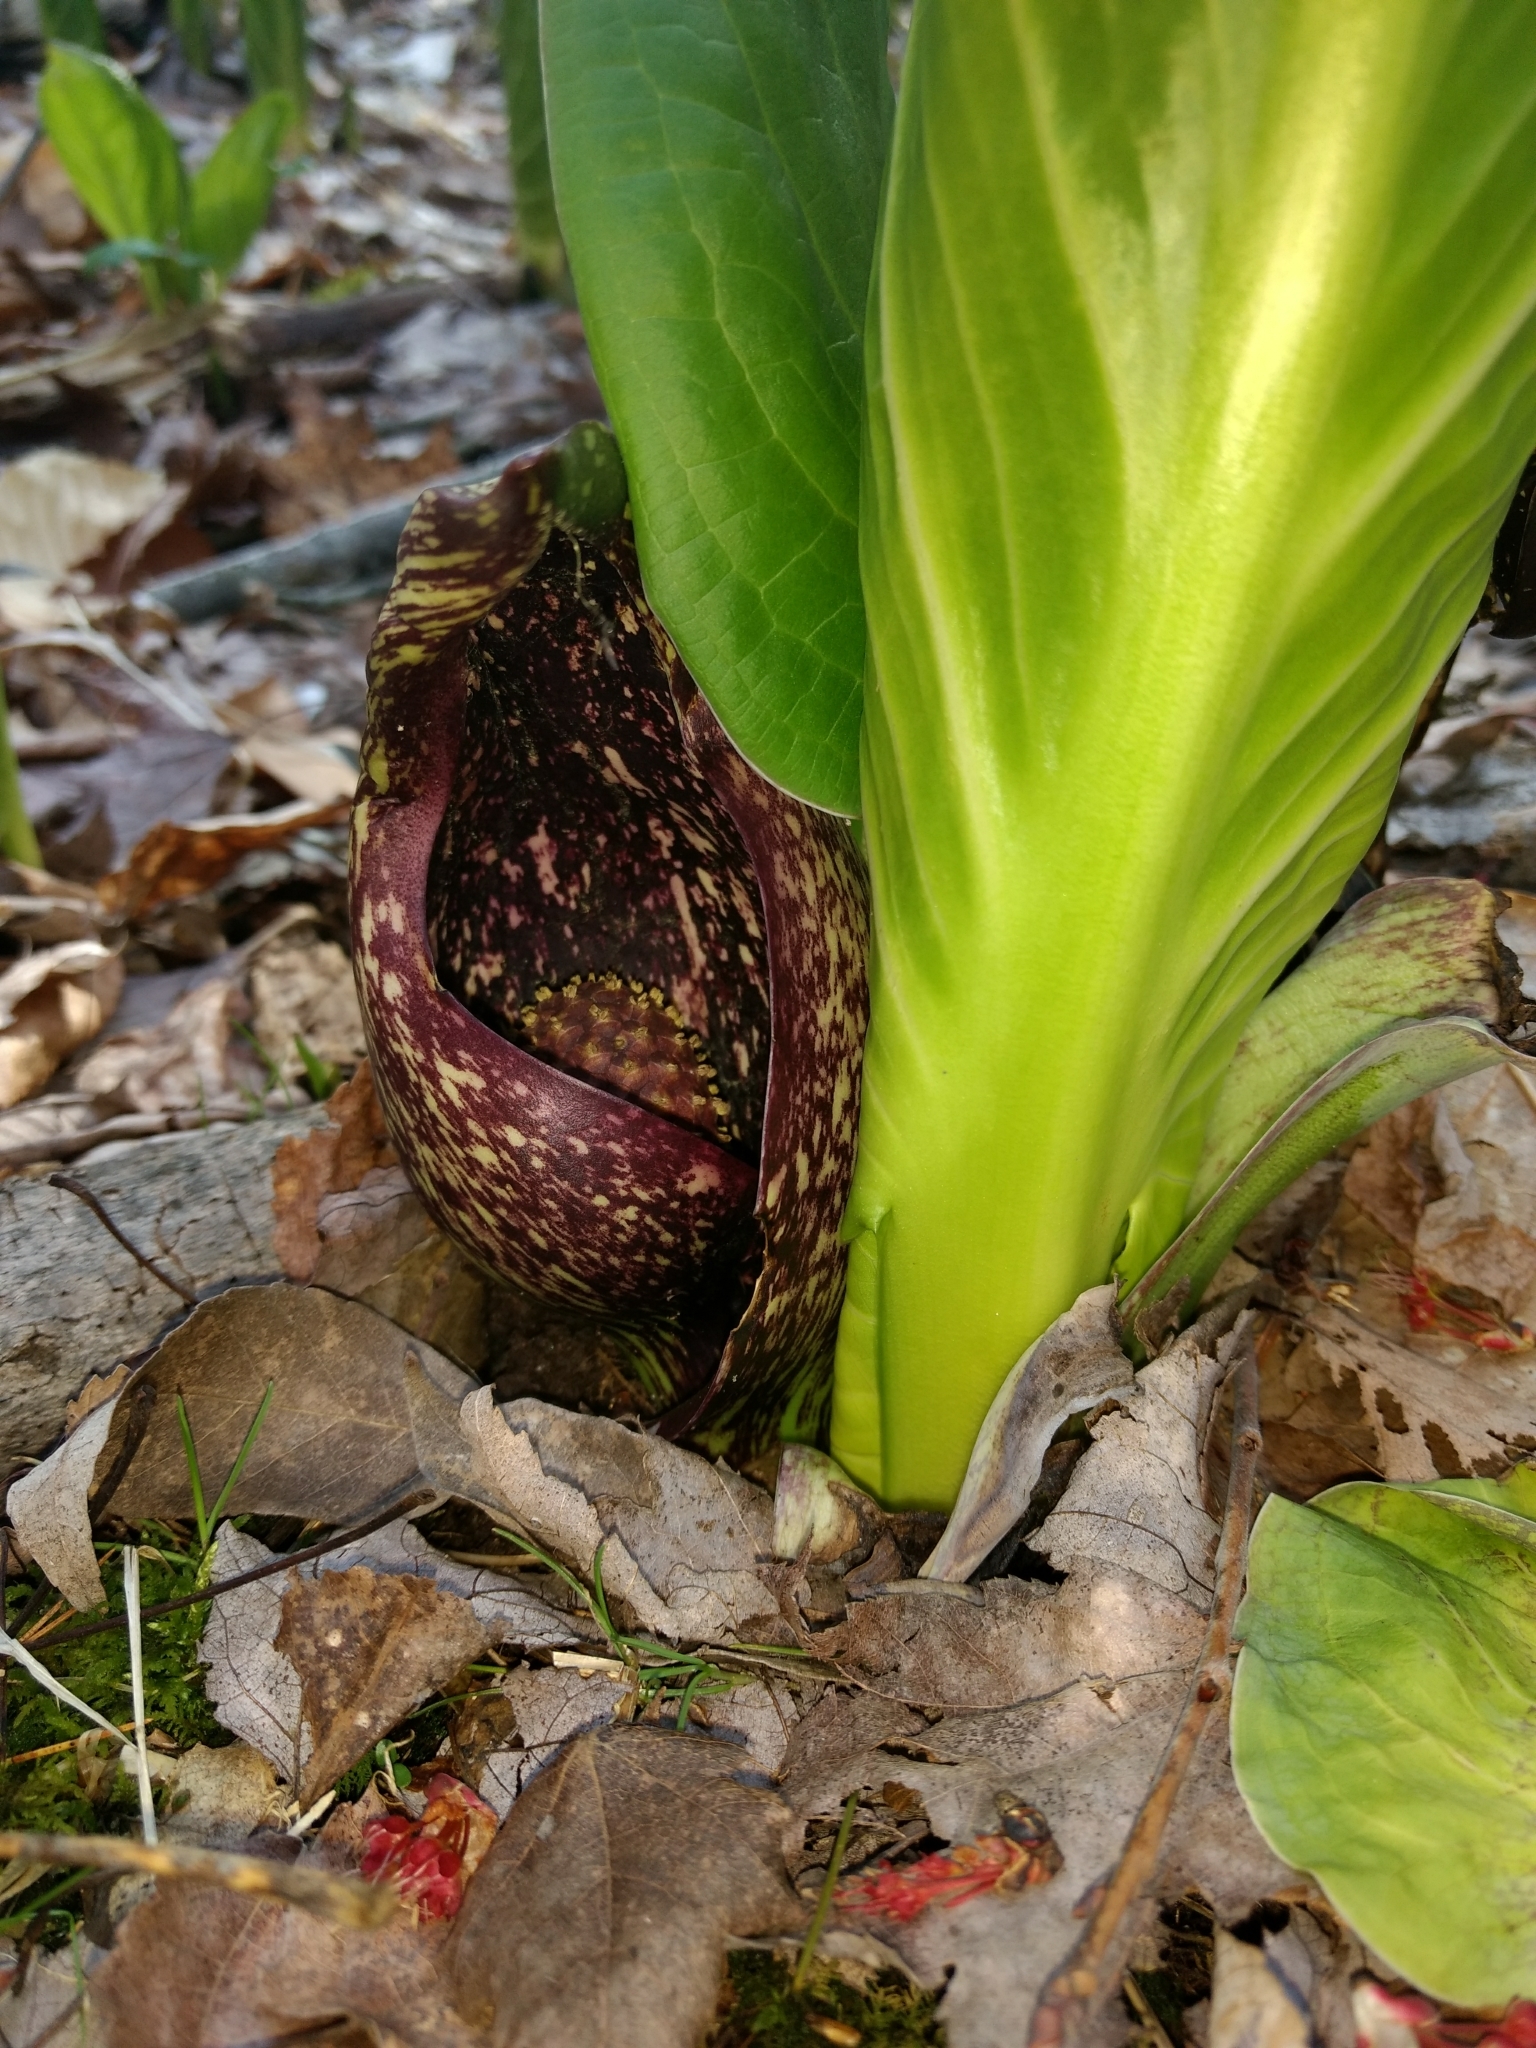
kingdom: Plantae
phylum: Tracheophyta
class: Liliopsida
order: Alismatales
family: Araceae
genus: Symplocarpus
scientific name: Symplocarpus foetidus
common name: Eastern skunk cabbage
